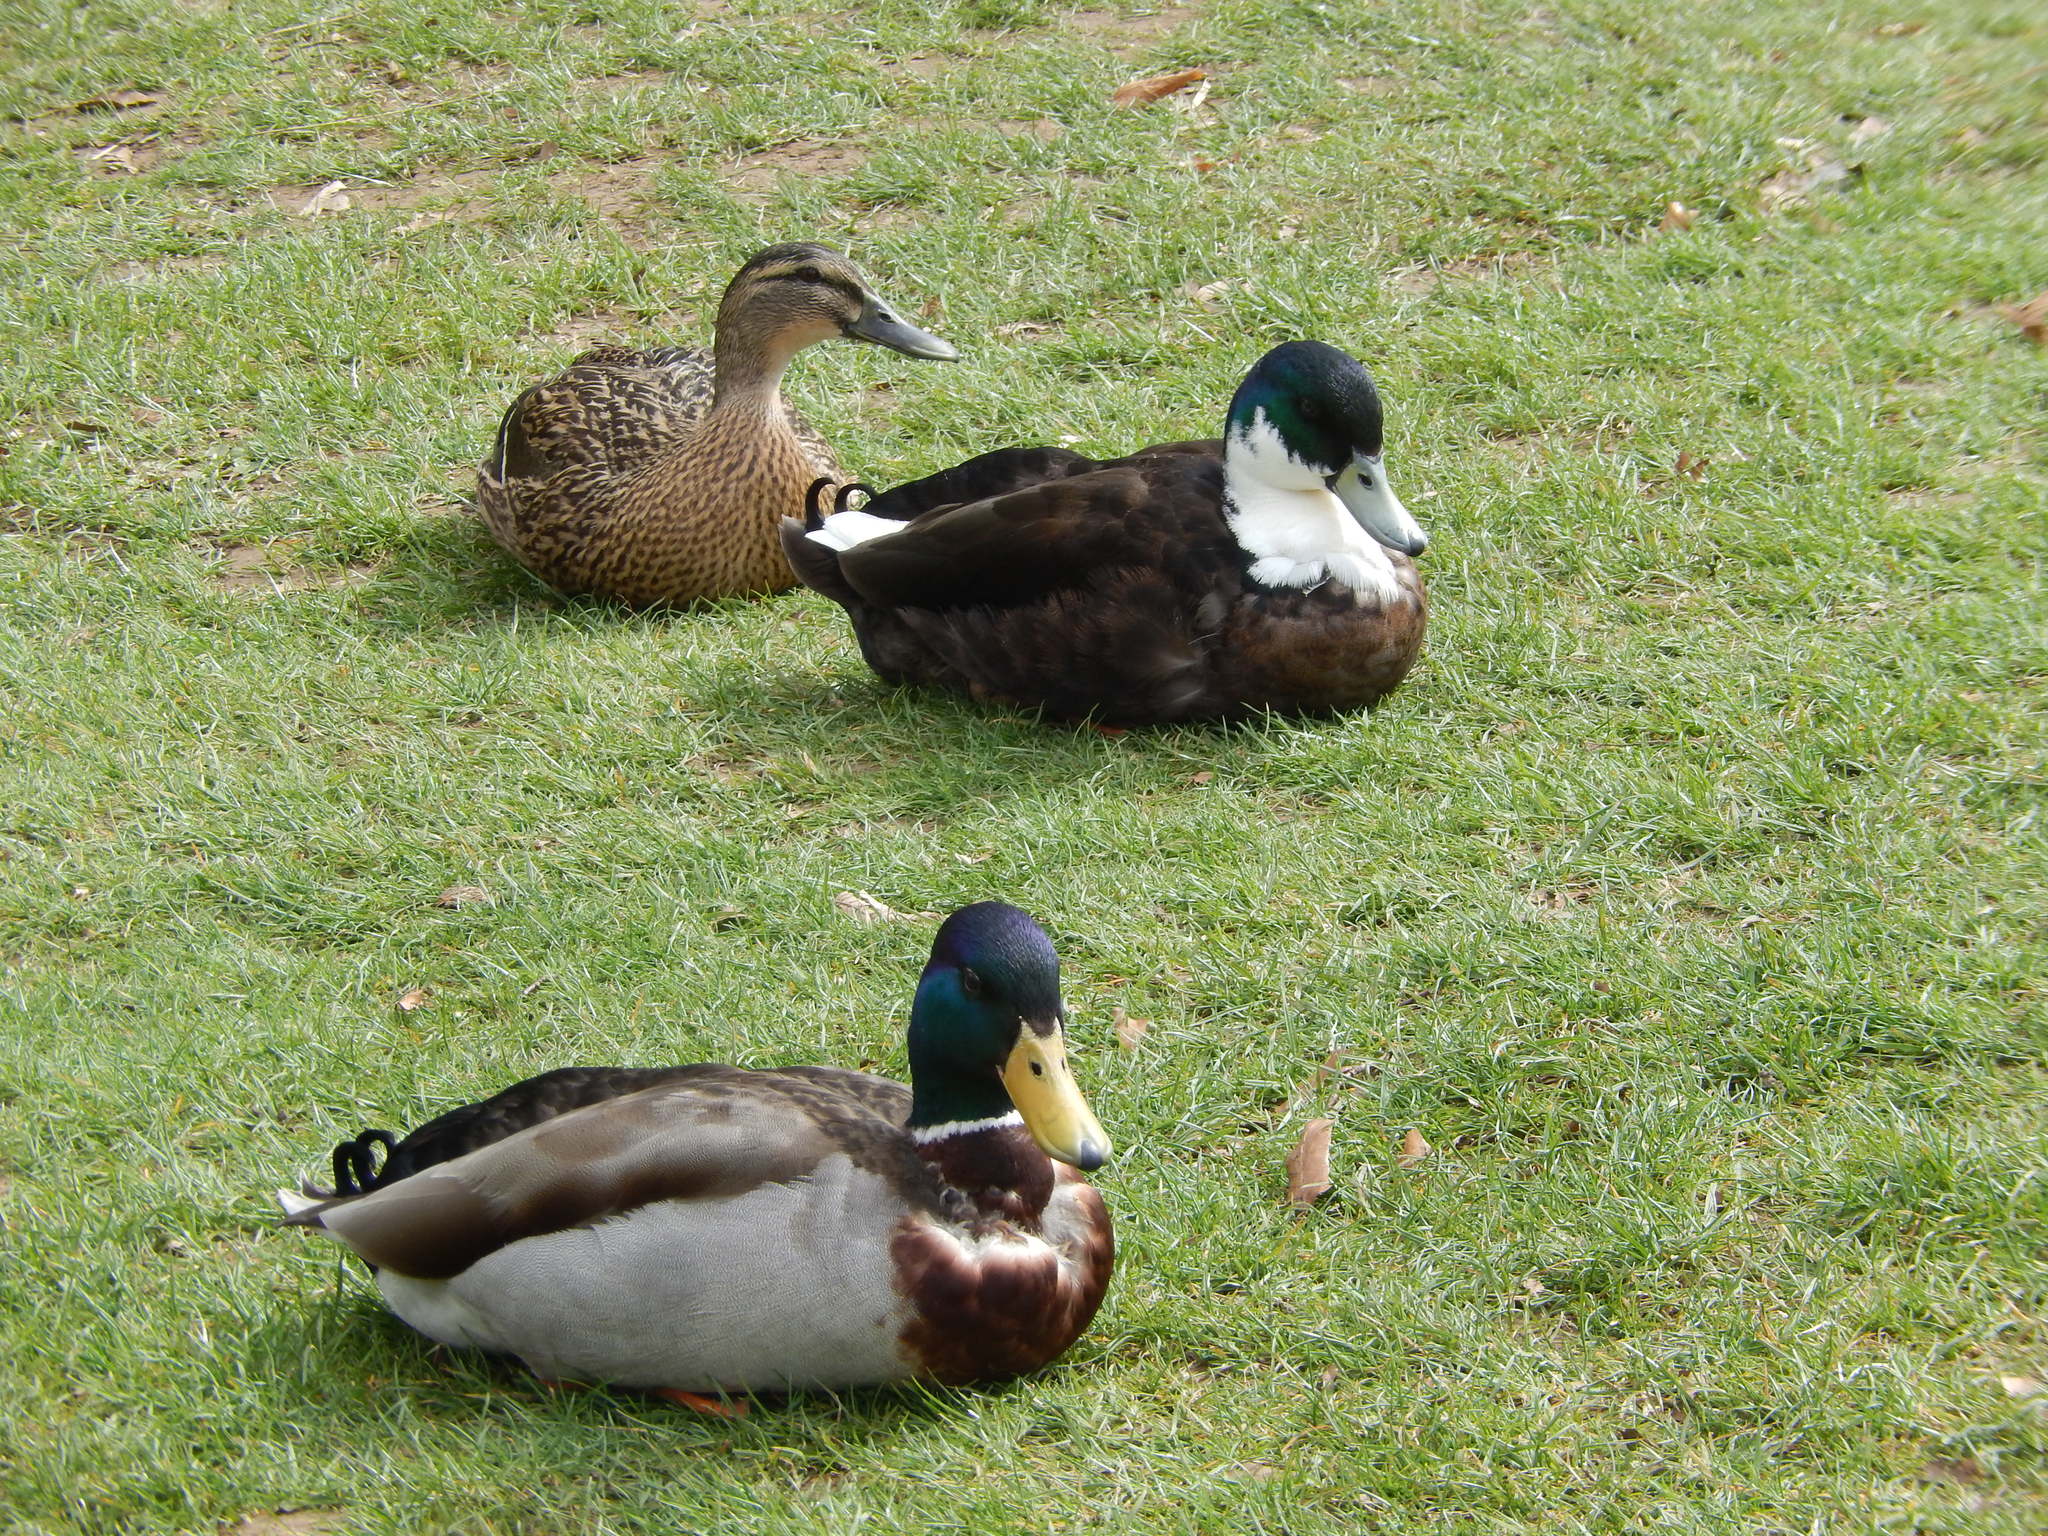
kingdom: Animalia
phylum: Chordata
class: Aves
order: Anseriformes
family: Anatidae
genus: Anas
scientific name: Anas platyrhynchos
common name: Mallard
